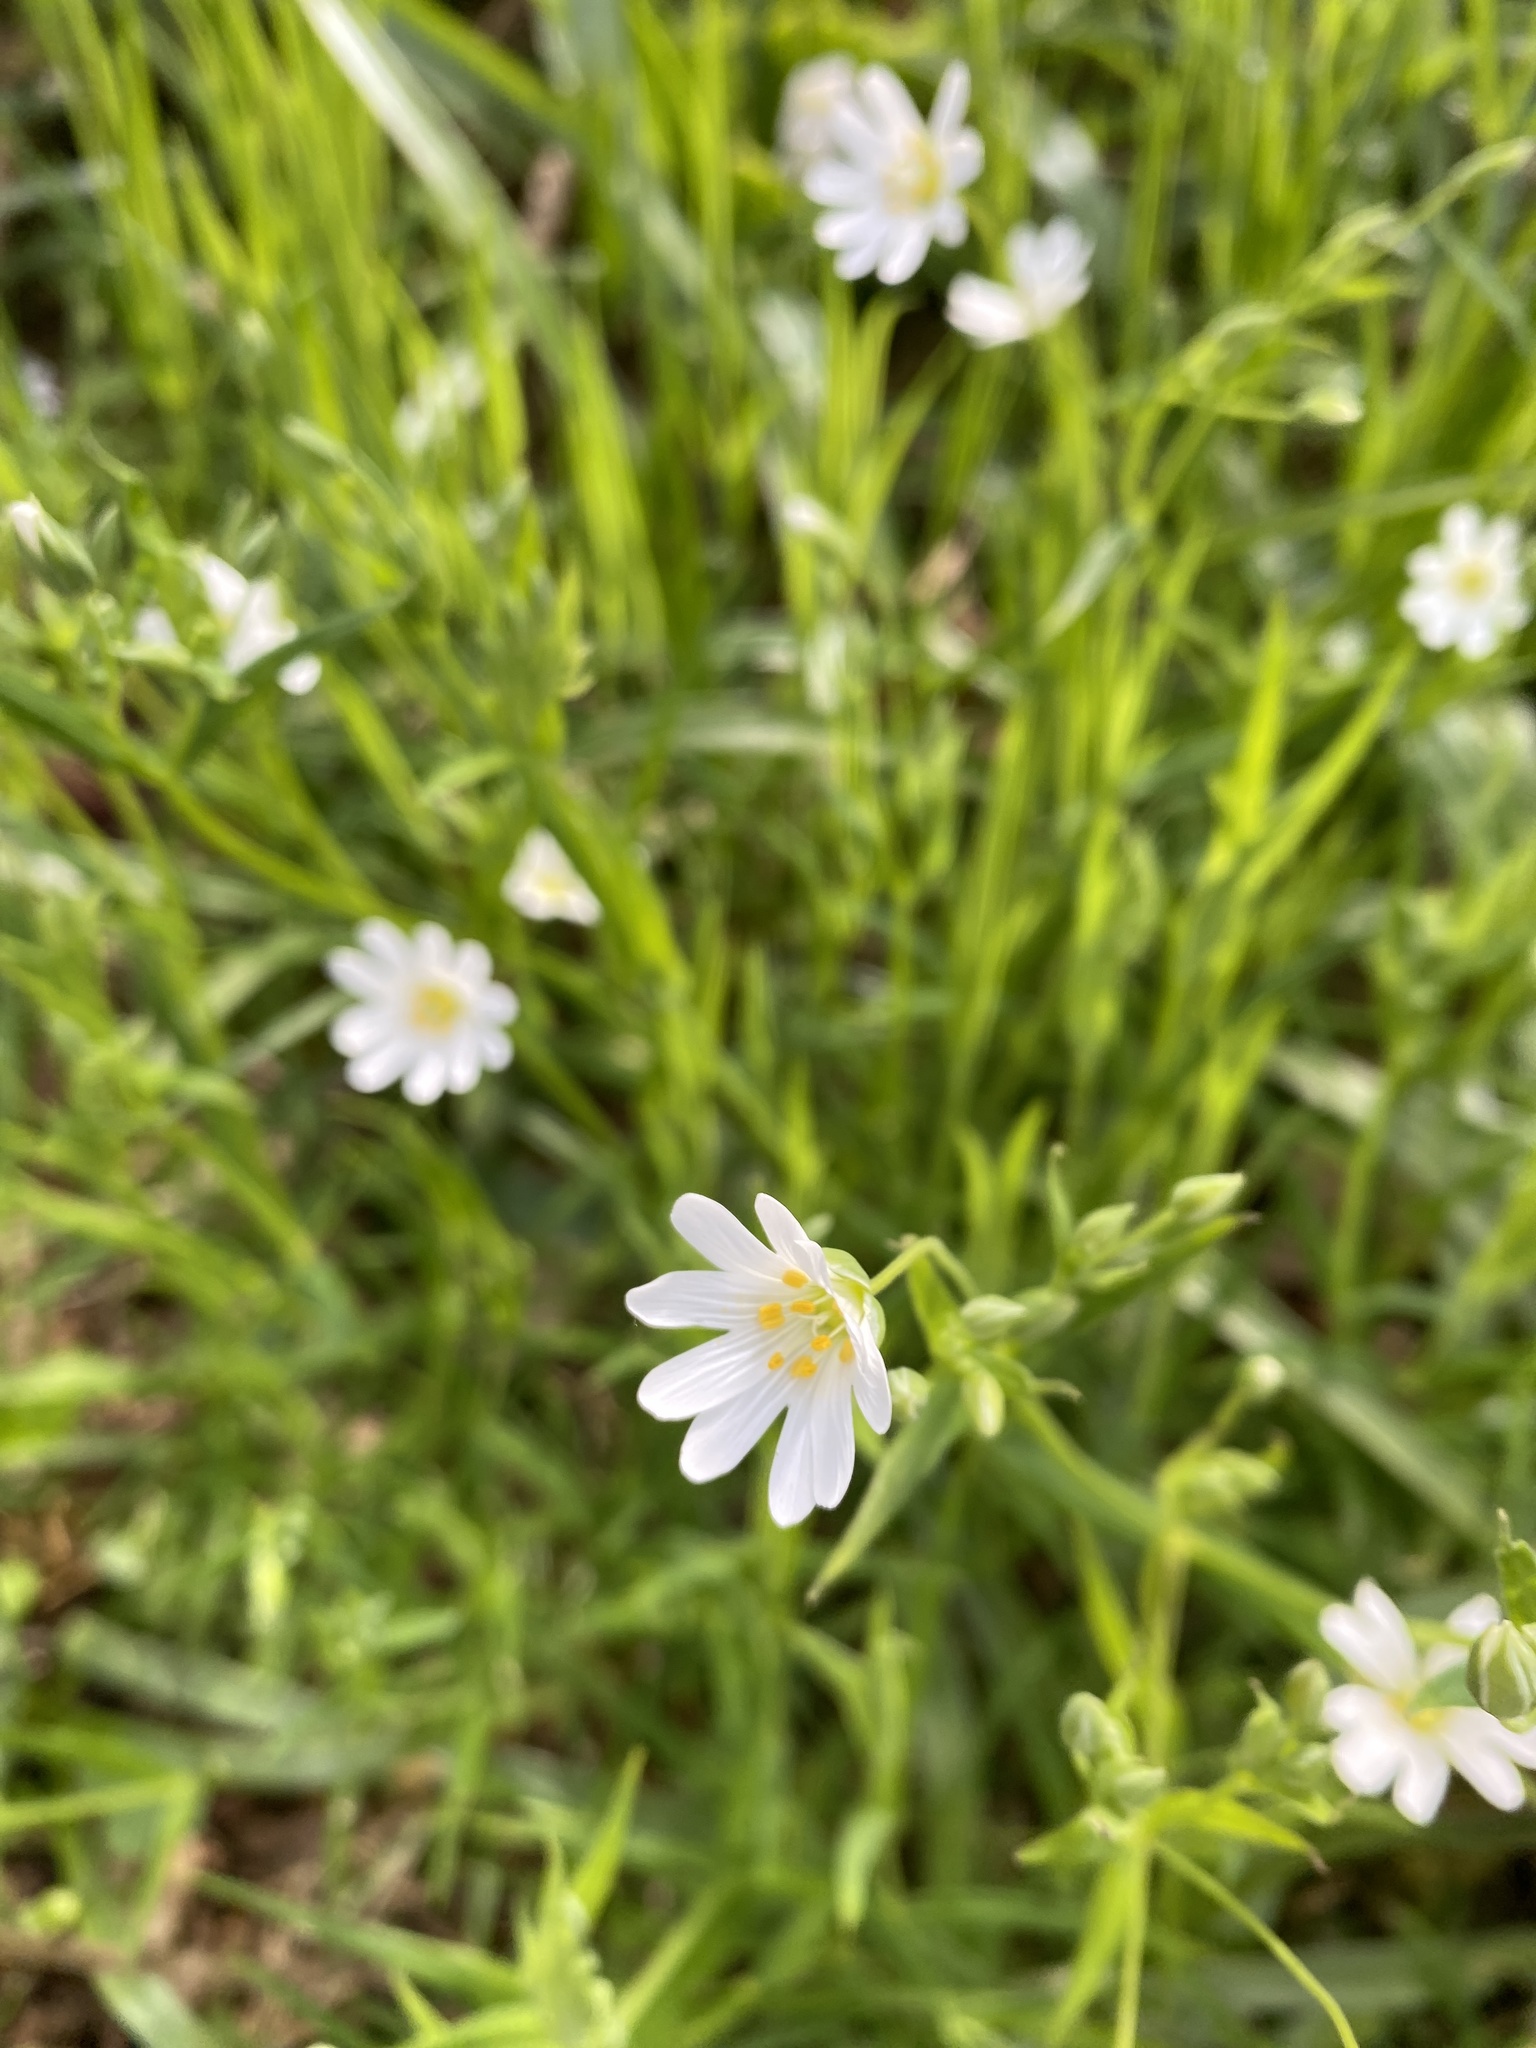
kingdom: Plantae
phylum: Tracheophyta
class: Magnoliopsida
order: Caryophyllales
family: Caryophyllaceae
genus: Rabelera
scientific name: Rabelera holostea
